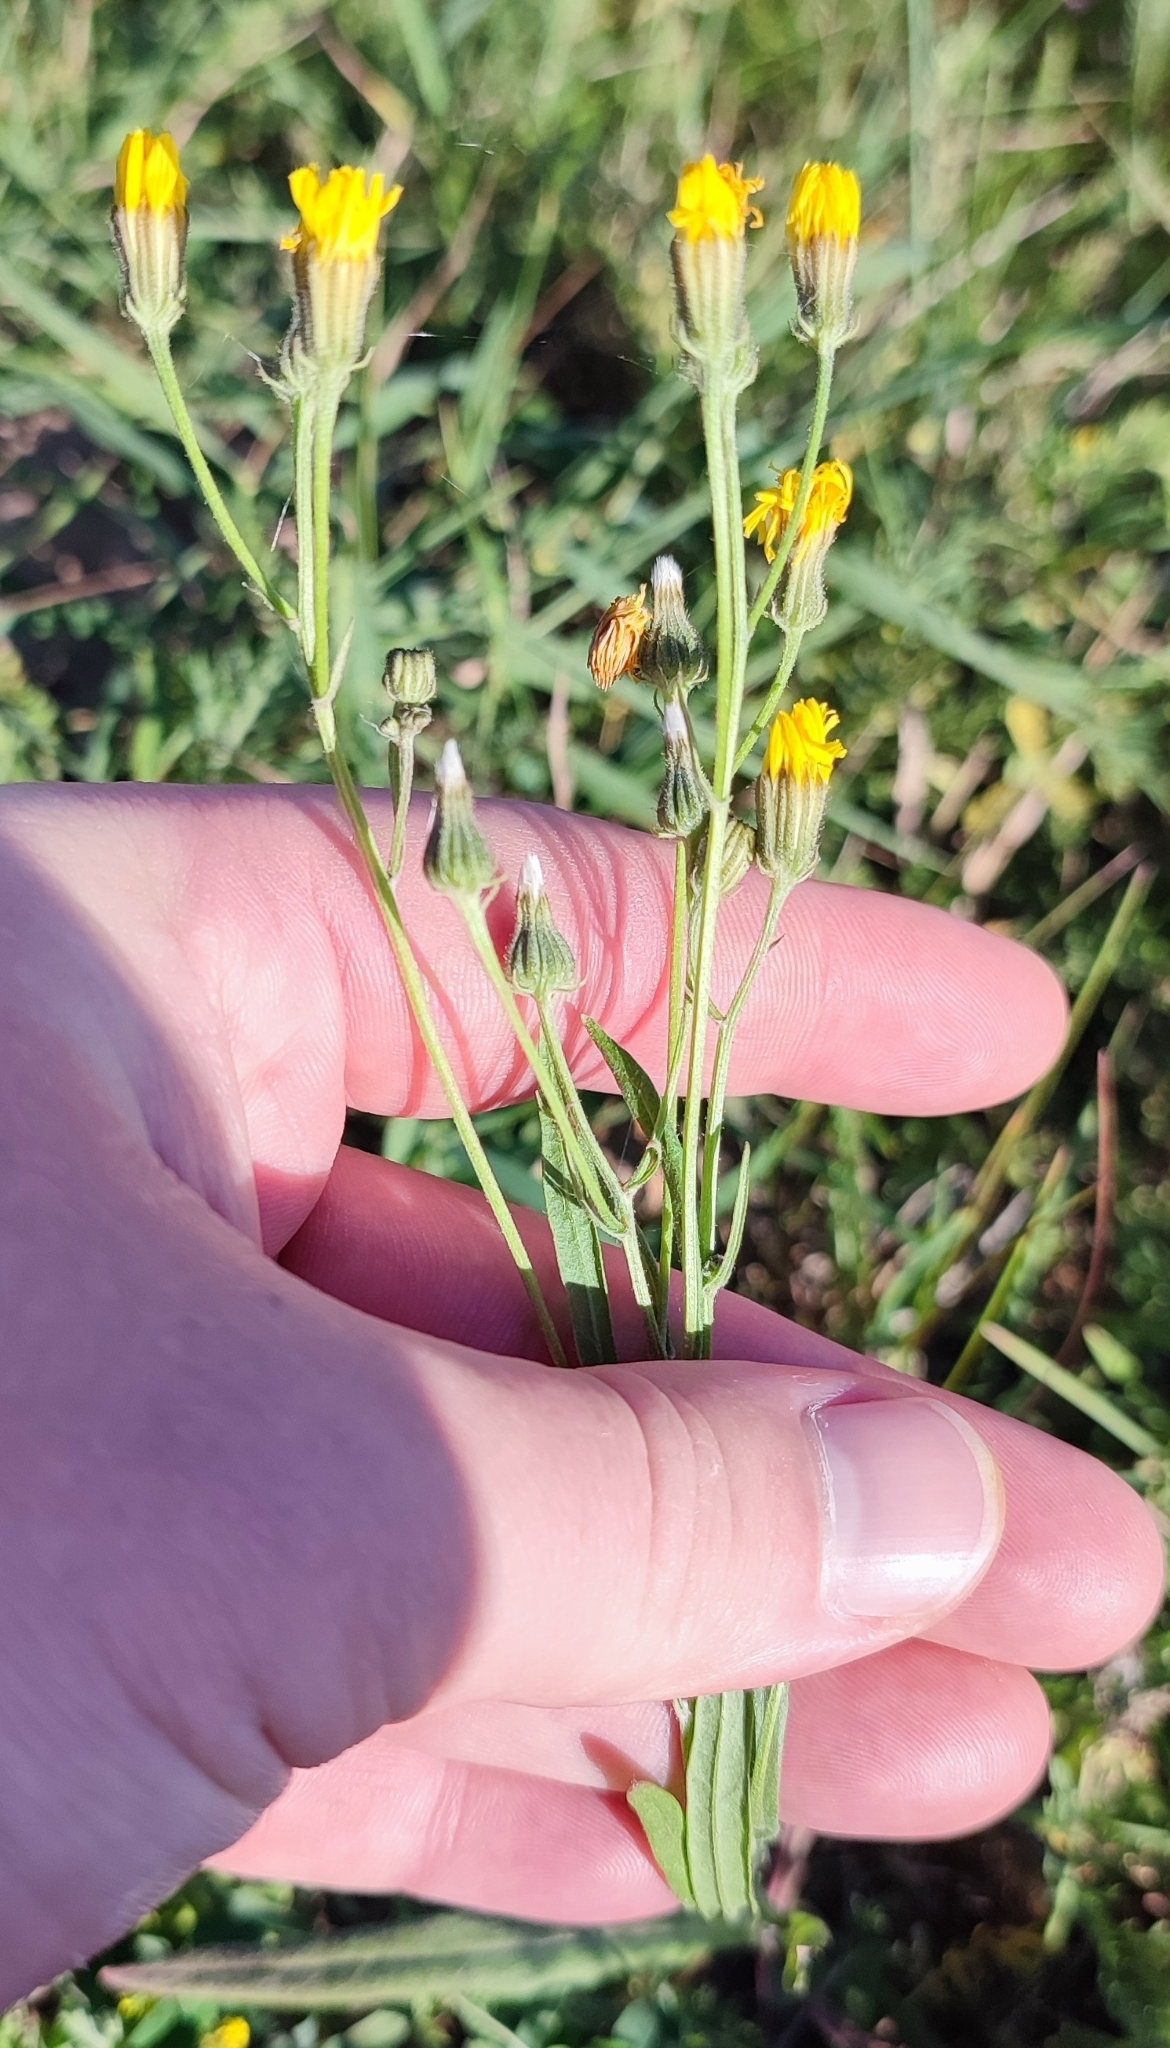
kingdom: Plantae
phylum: Tracheophyta
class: Magnoliopsida
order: Asterales
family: Asteraceae
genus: Crepis
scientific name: Crepis tectorum
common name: Narrow-leaved hawk's-beard
